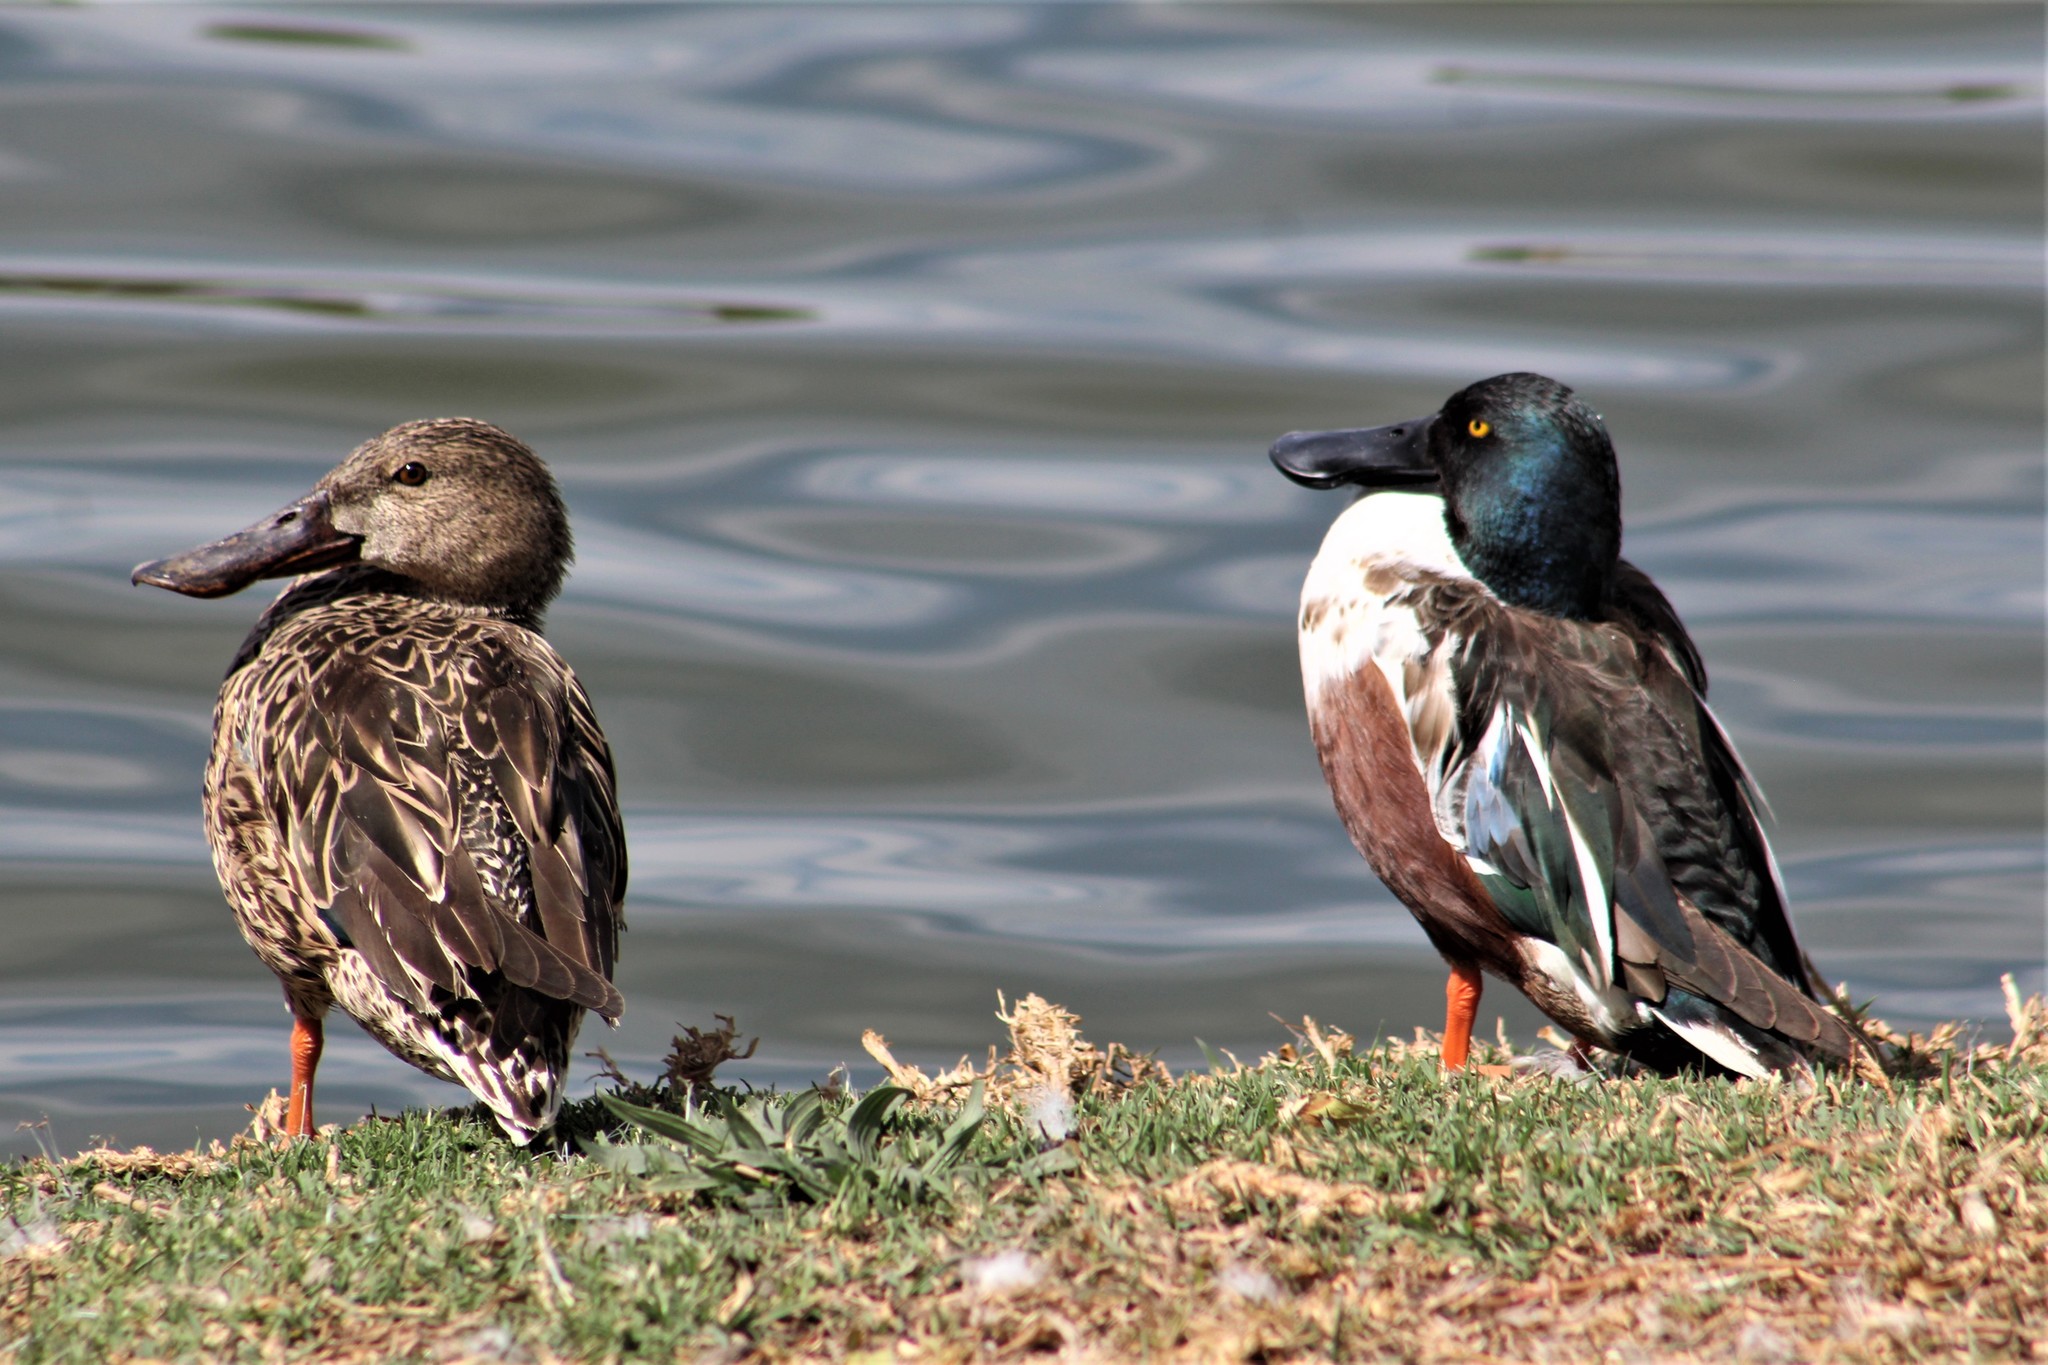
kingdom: Animalia
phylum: Chordata
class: Aves
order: Anseriformes
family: Anatidae
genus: Spatula
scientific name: Spatula clypeata
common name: Northern shoveler
